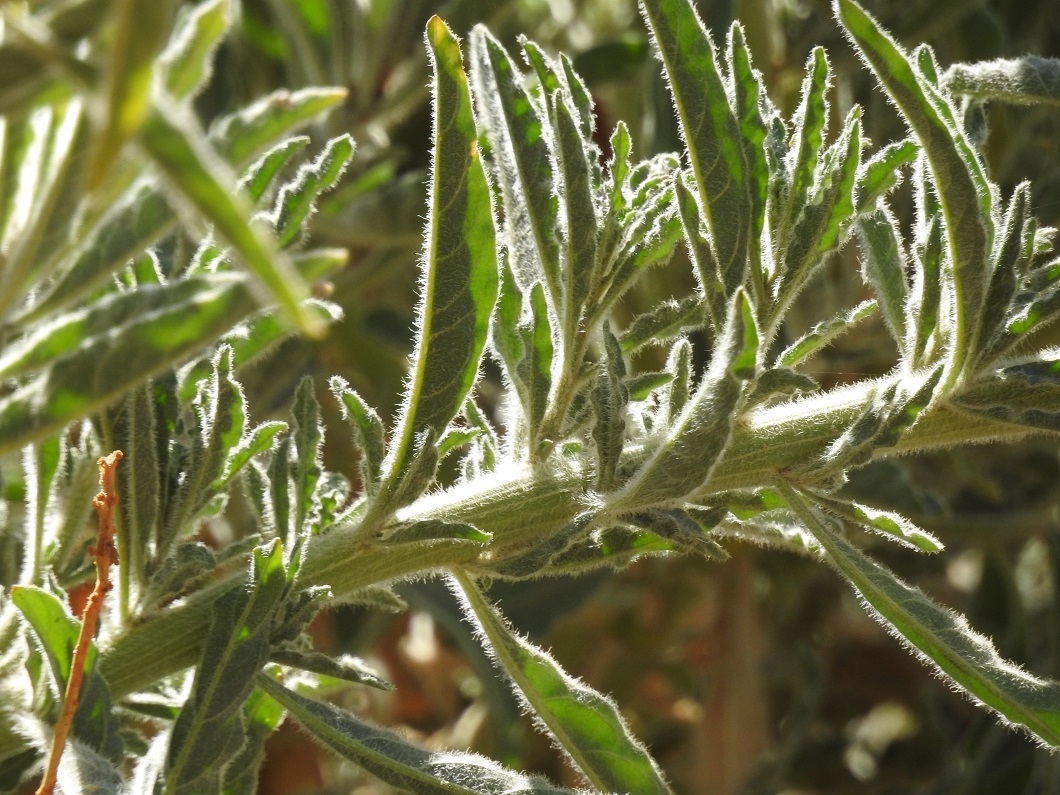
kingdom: Plantae
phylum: Tracheophyta
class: Magnoliopsida
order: Brassicales
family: Resedaceae
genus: Reseda
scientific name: Reseda villosa
